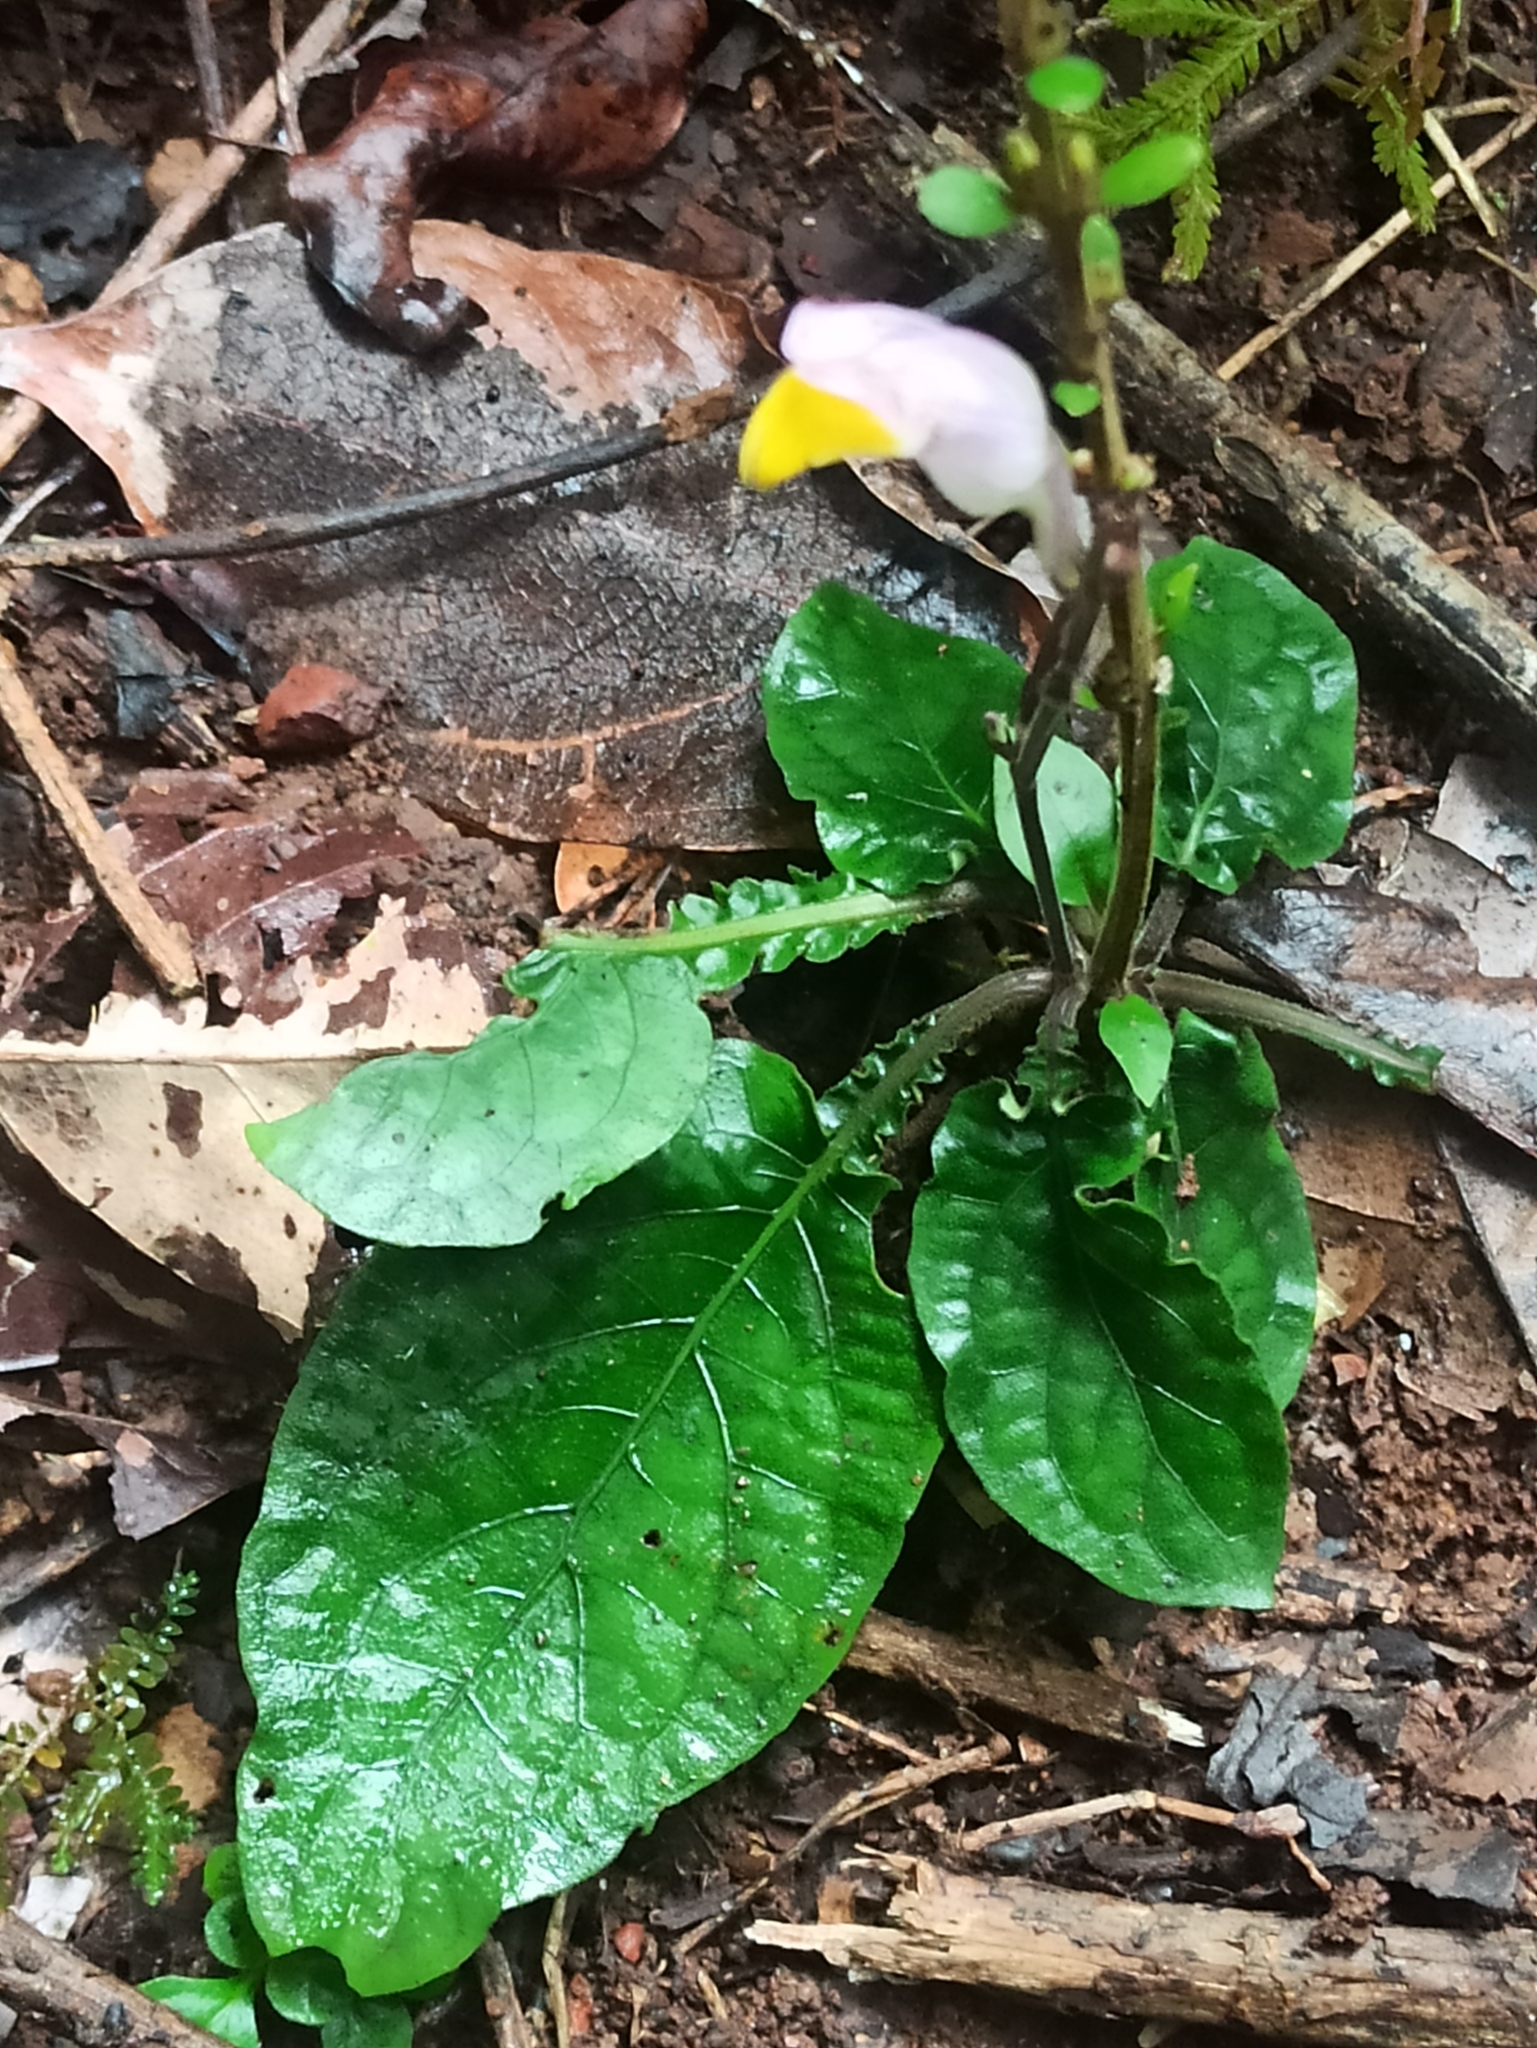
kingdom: Plantae
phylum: Tracheophyta
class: Magnoliopsida
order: Lamiales
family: Acanthaceae
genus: Gymnostachyum
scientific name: Gymnostachyum febrifugum
